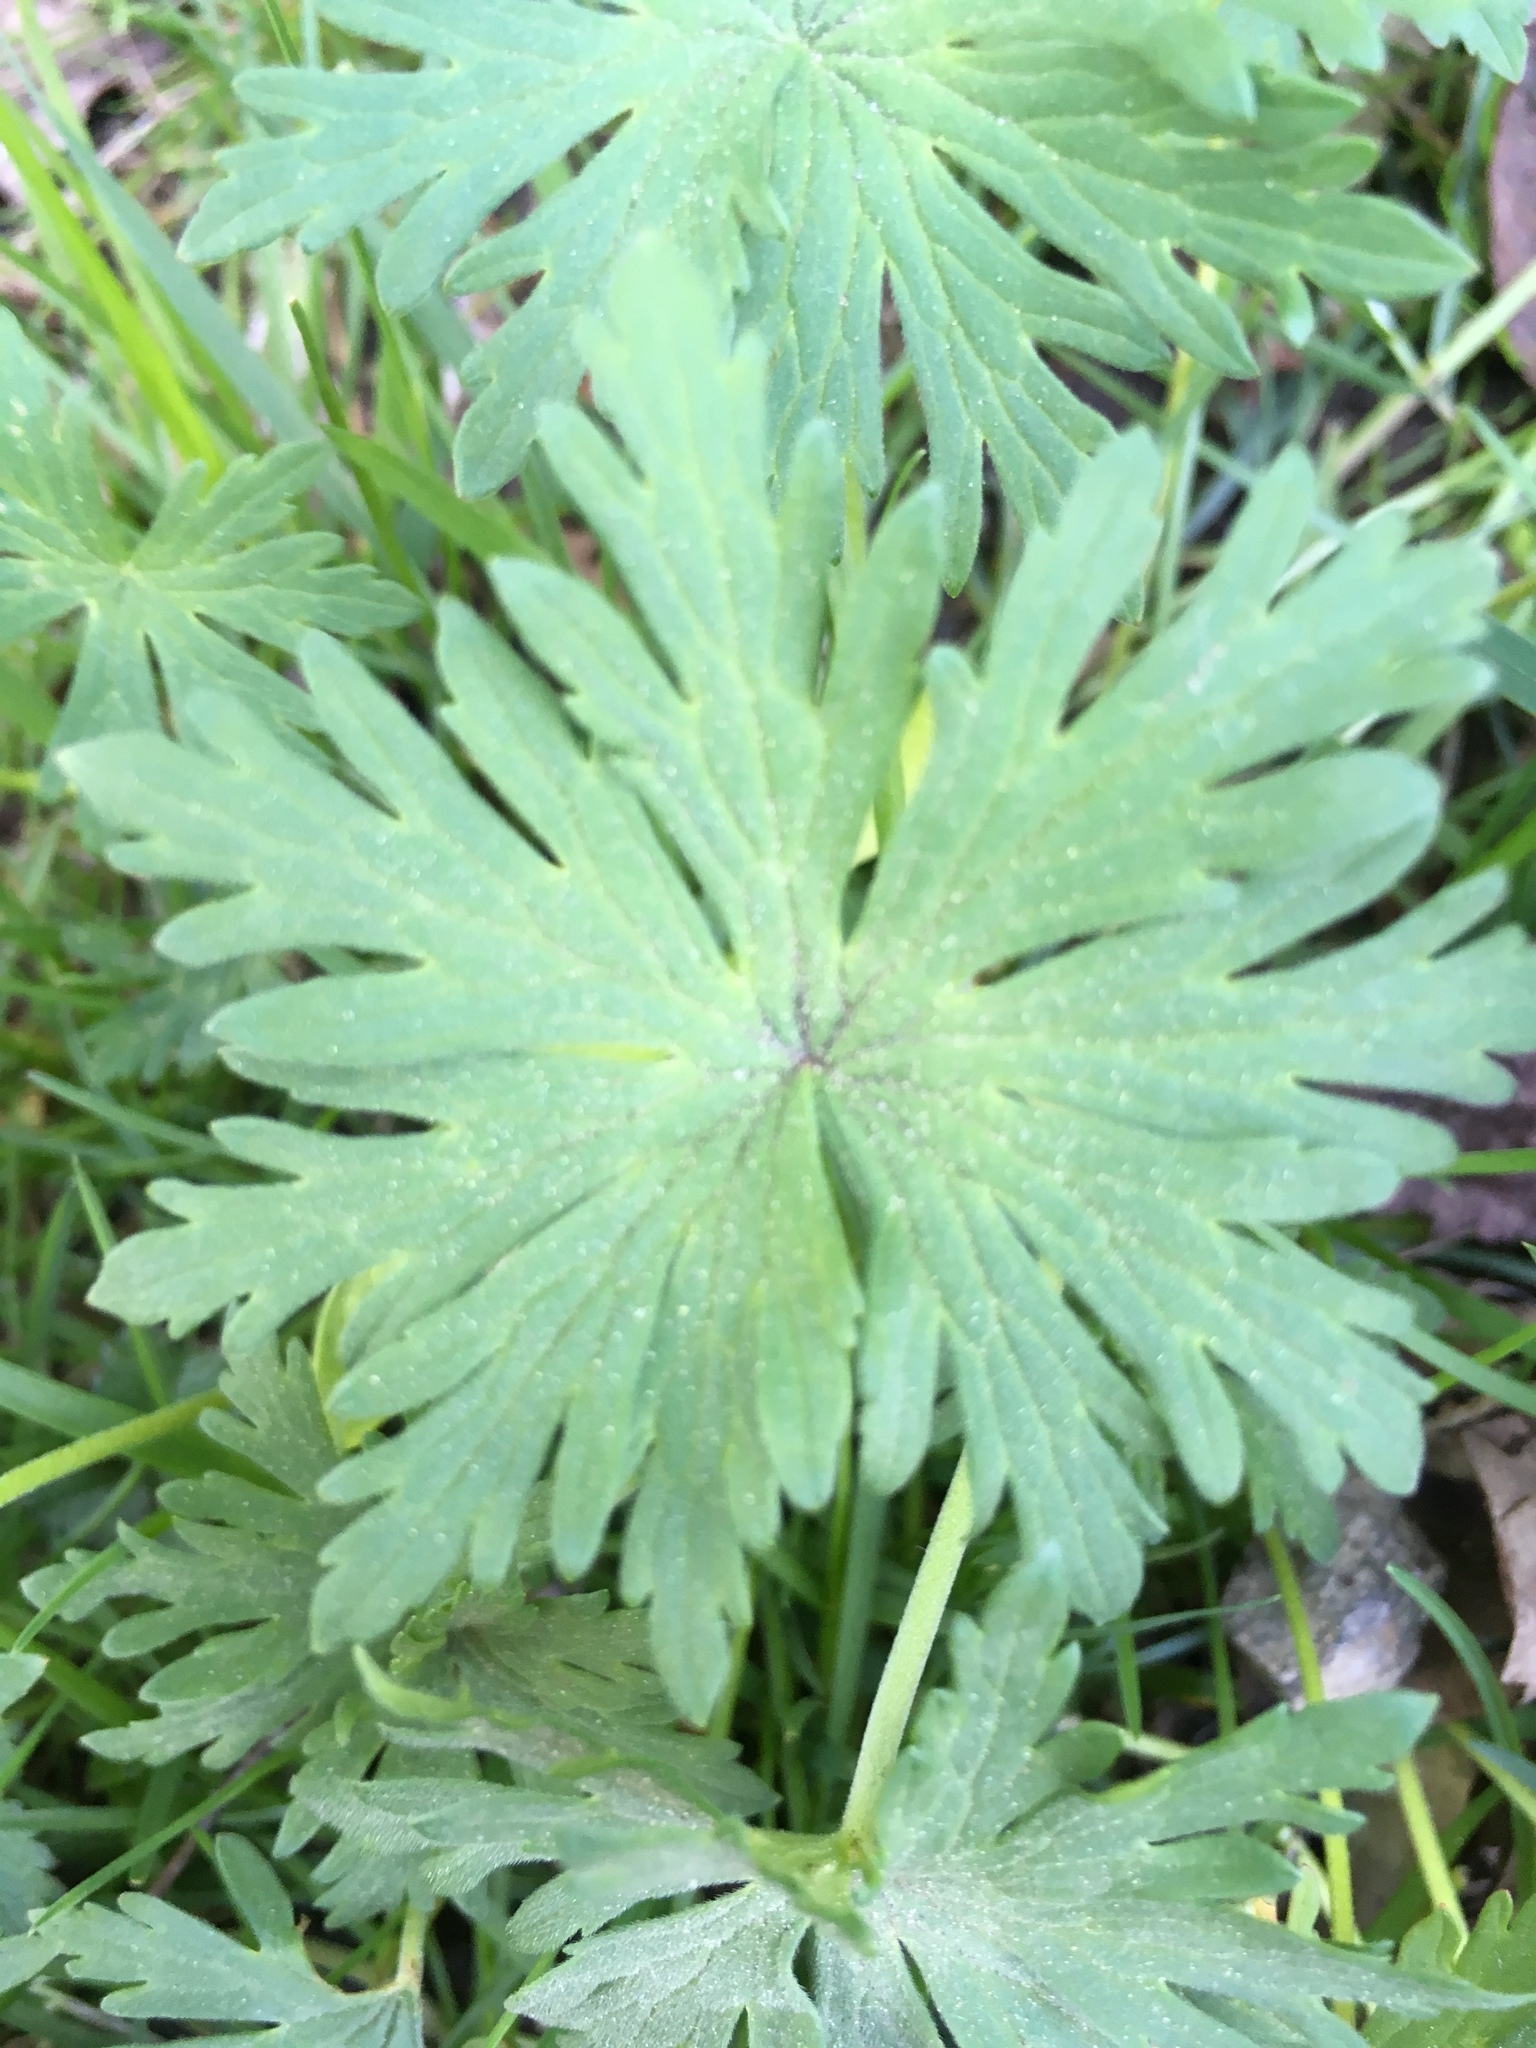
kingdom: Plantae
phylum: Tracheophyta
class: Magnoliopsida
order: Geraniales
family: Geraniaceae
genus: Geranium
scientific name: Geranium pratense
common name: Meadow crane's-bill
